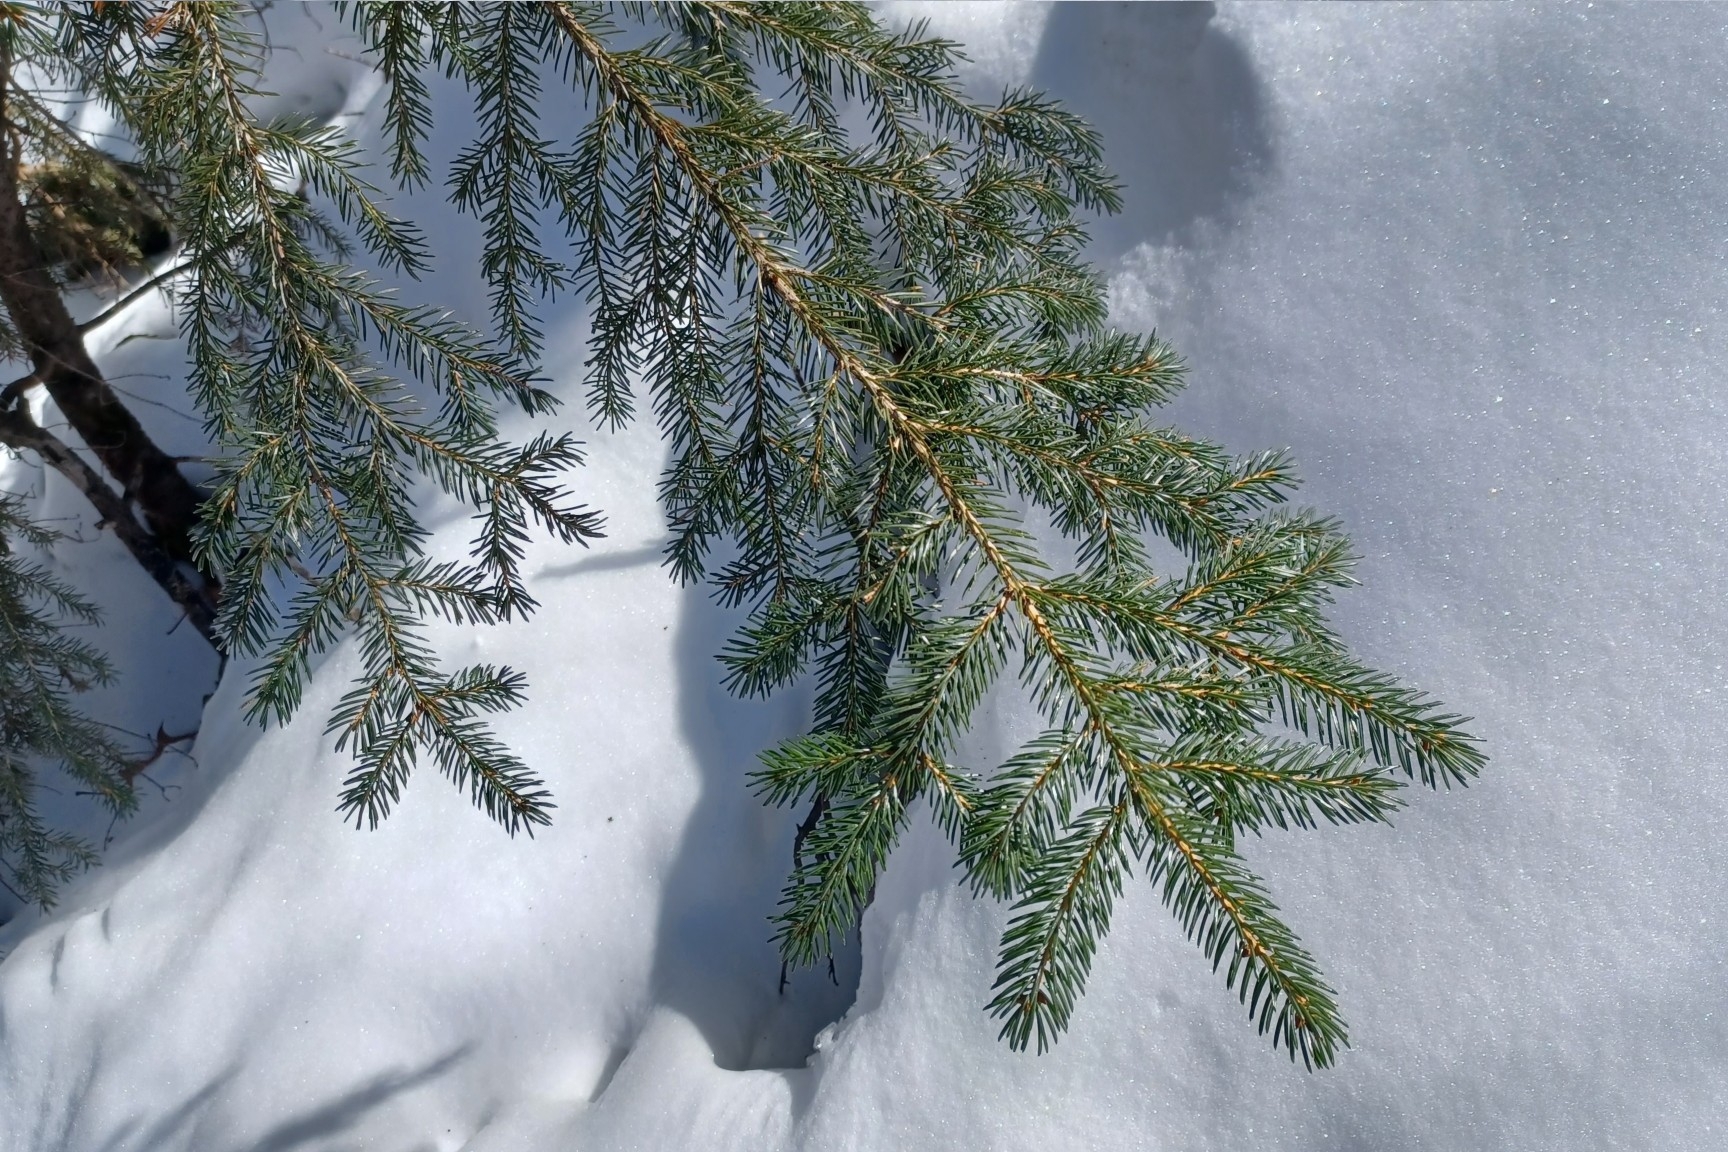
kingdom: Plantae
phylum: Tracheophyta
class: Pinopsida
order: Pinales
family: Pinaceae
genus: Picea
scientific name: Picea rubens
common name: Red spruce
